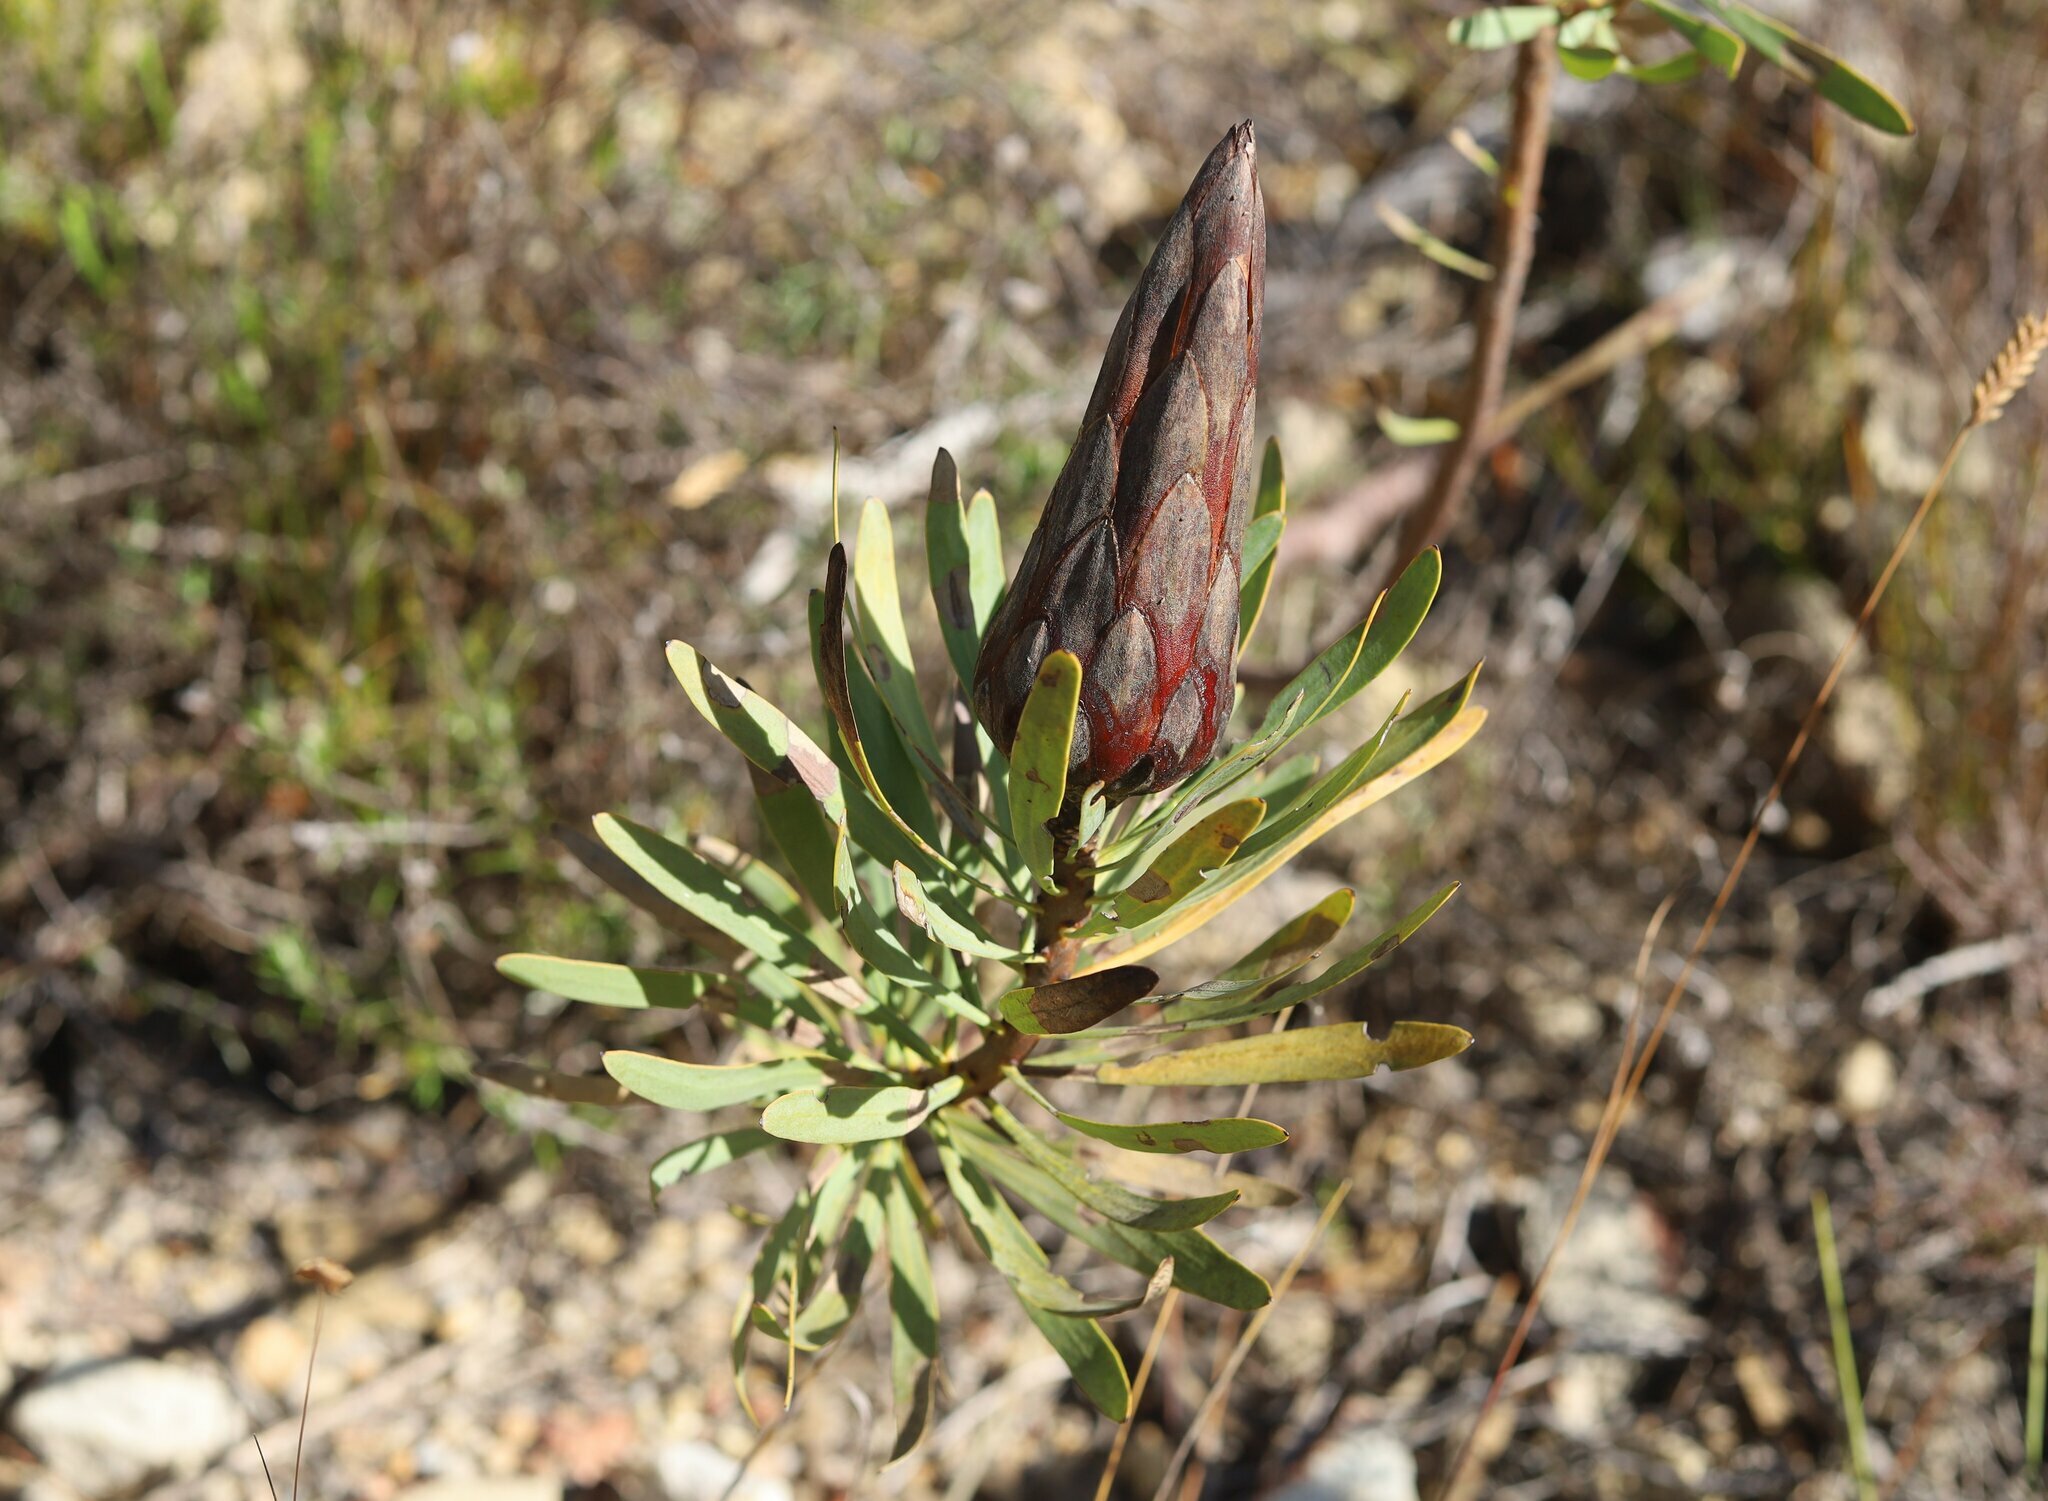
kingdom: Plantae
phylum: Tracheophyta
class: Magnoliopsida
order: Proteales
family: Proteaceae
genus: Protea
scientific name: Protea repens
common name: Sugarbush
